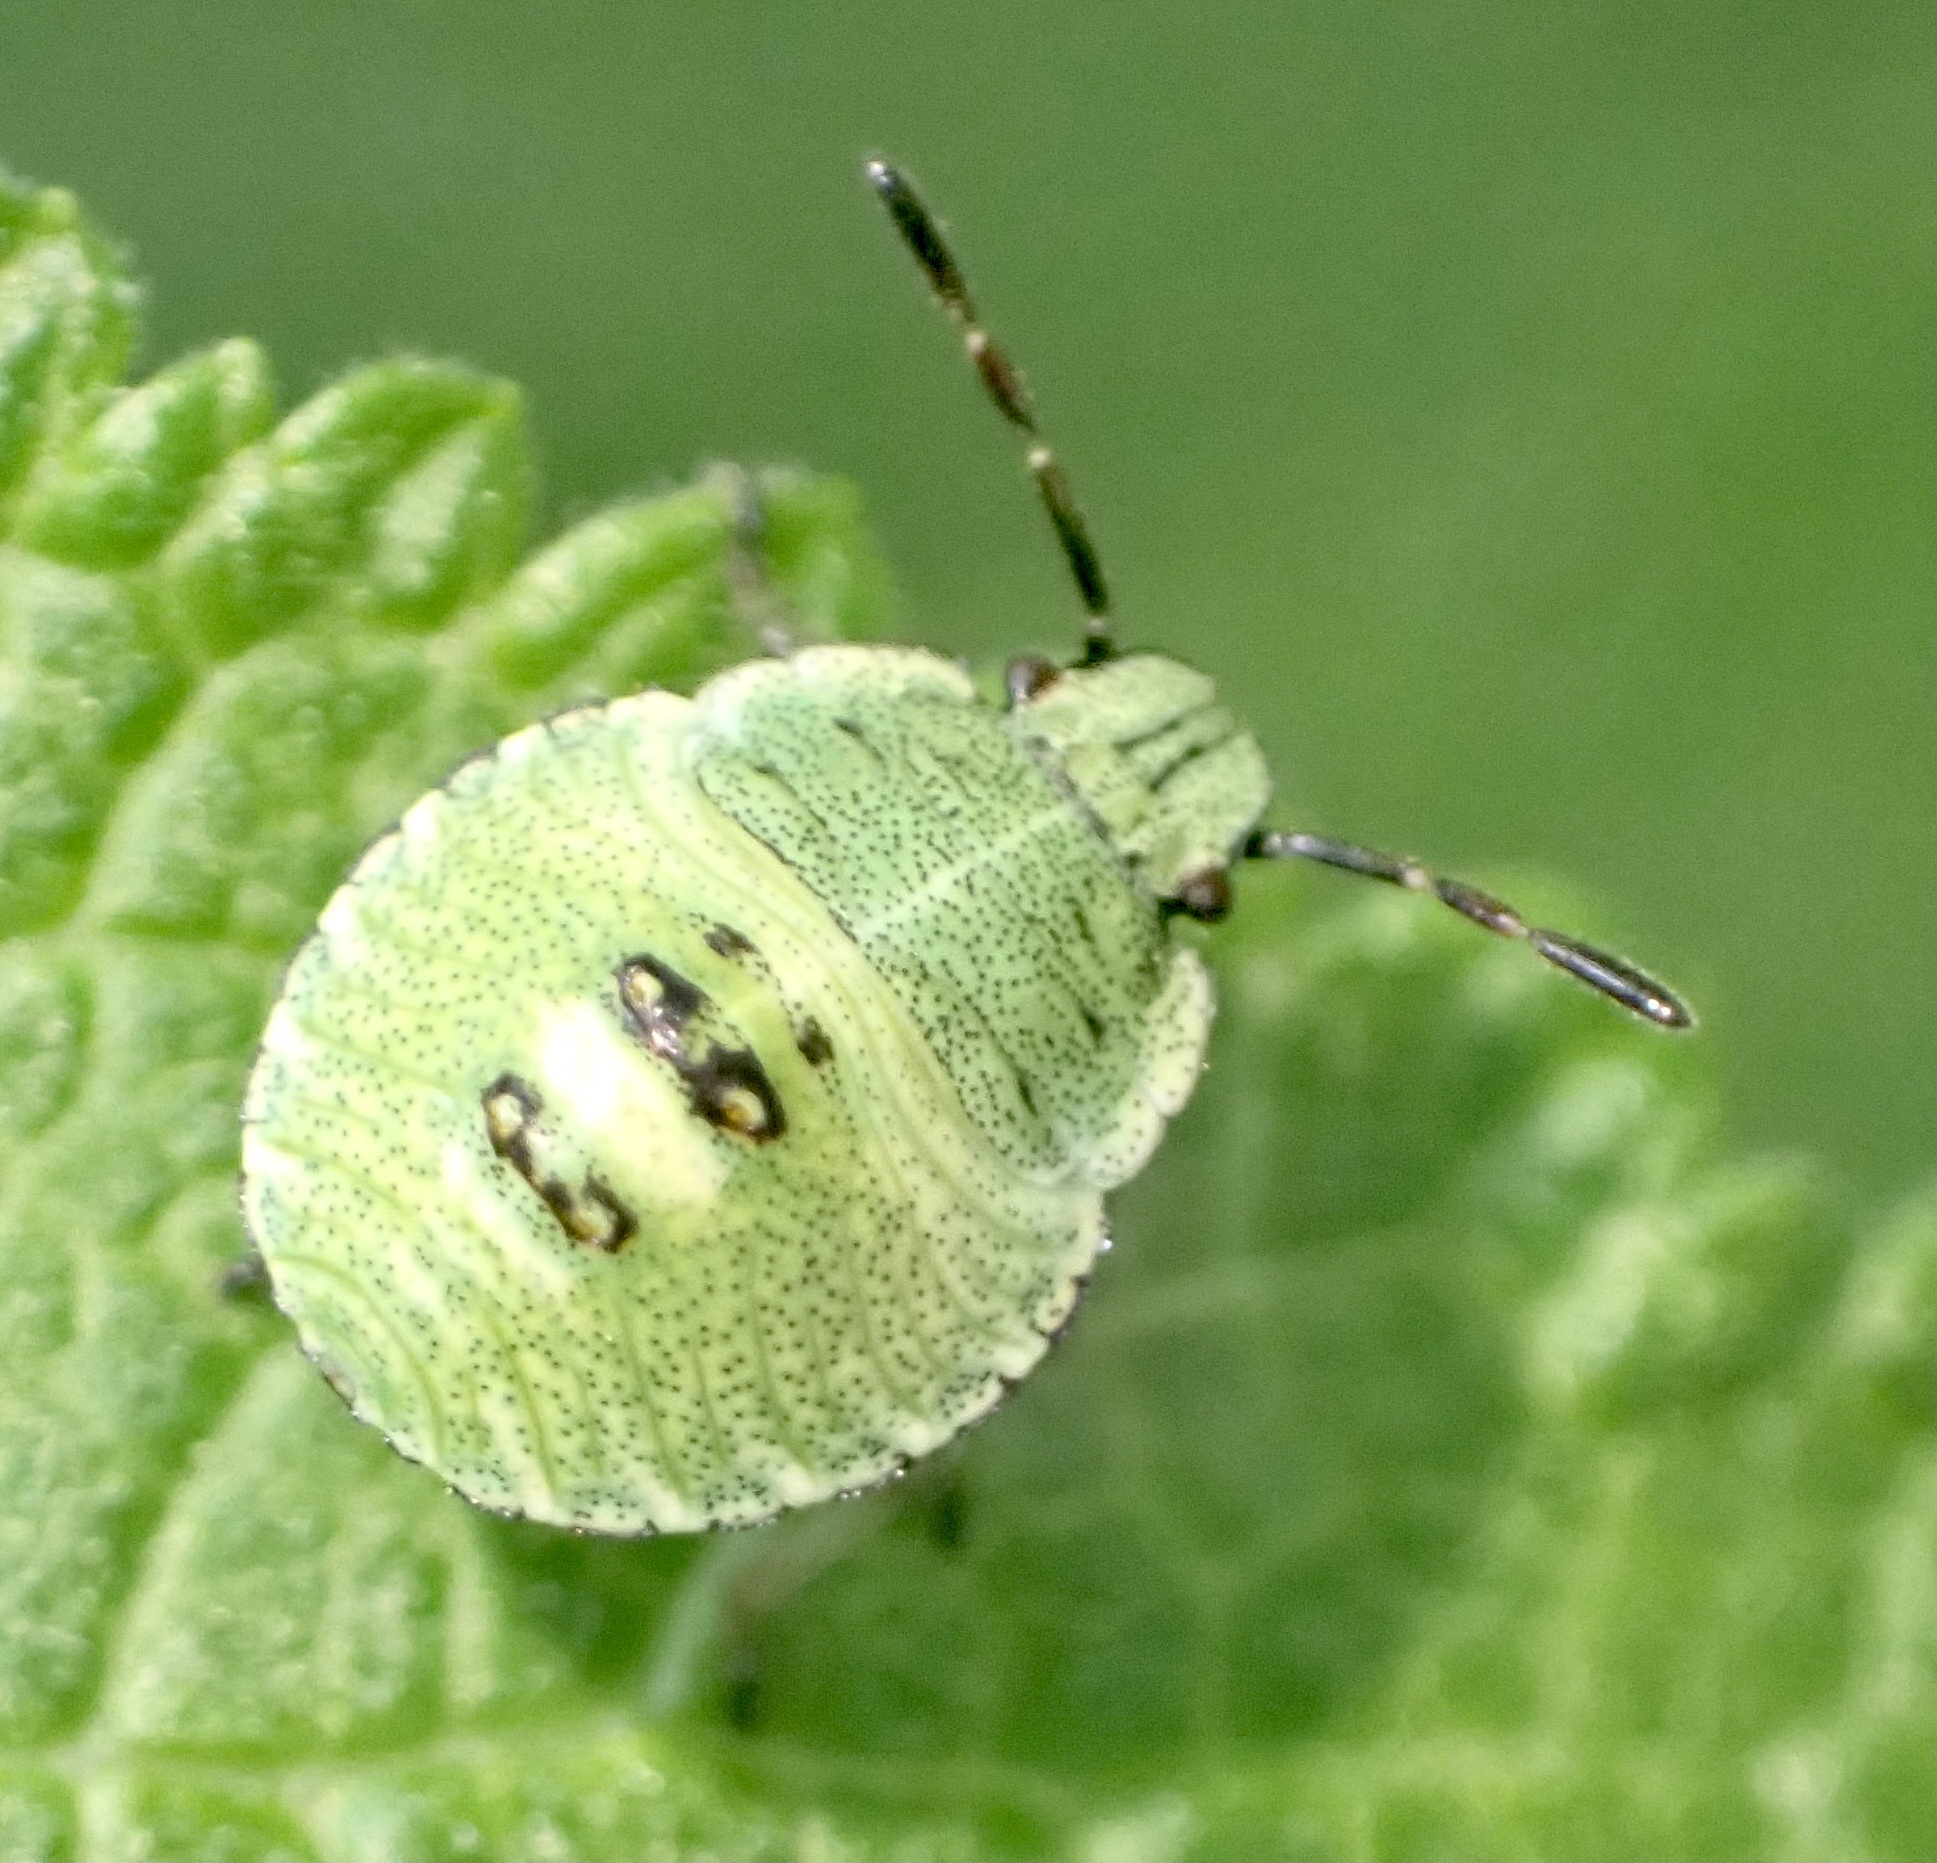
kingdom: Animalia
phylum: Arthropoda
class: Insecta
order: Hemiptera
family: Pentatomidae
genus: Palomena
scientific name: Palomena prasina
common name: Green shieldbug
